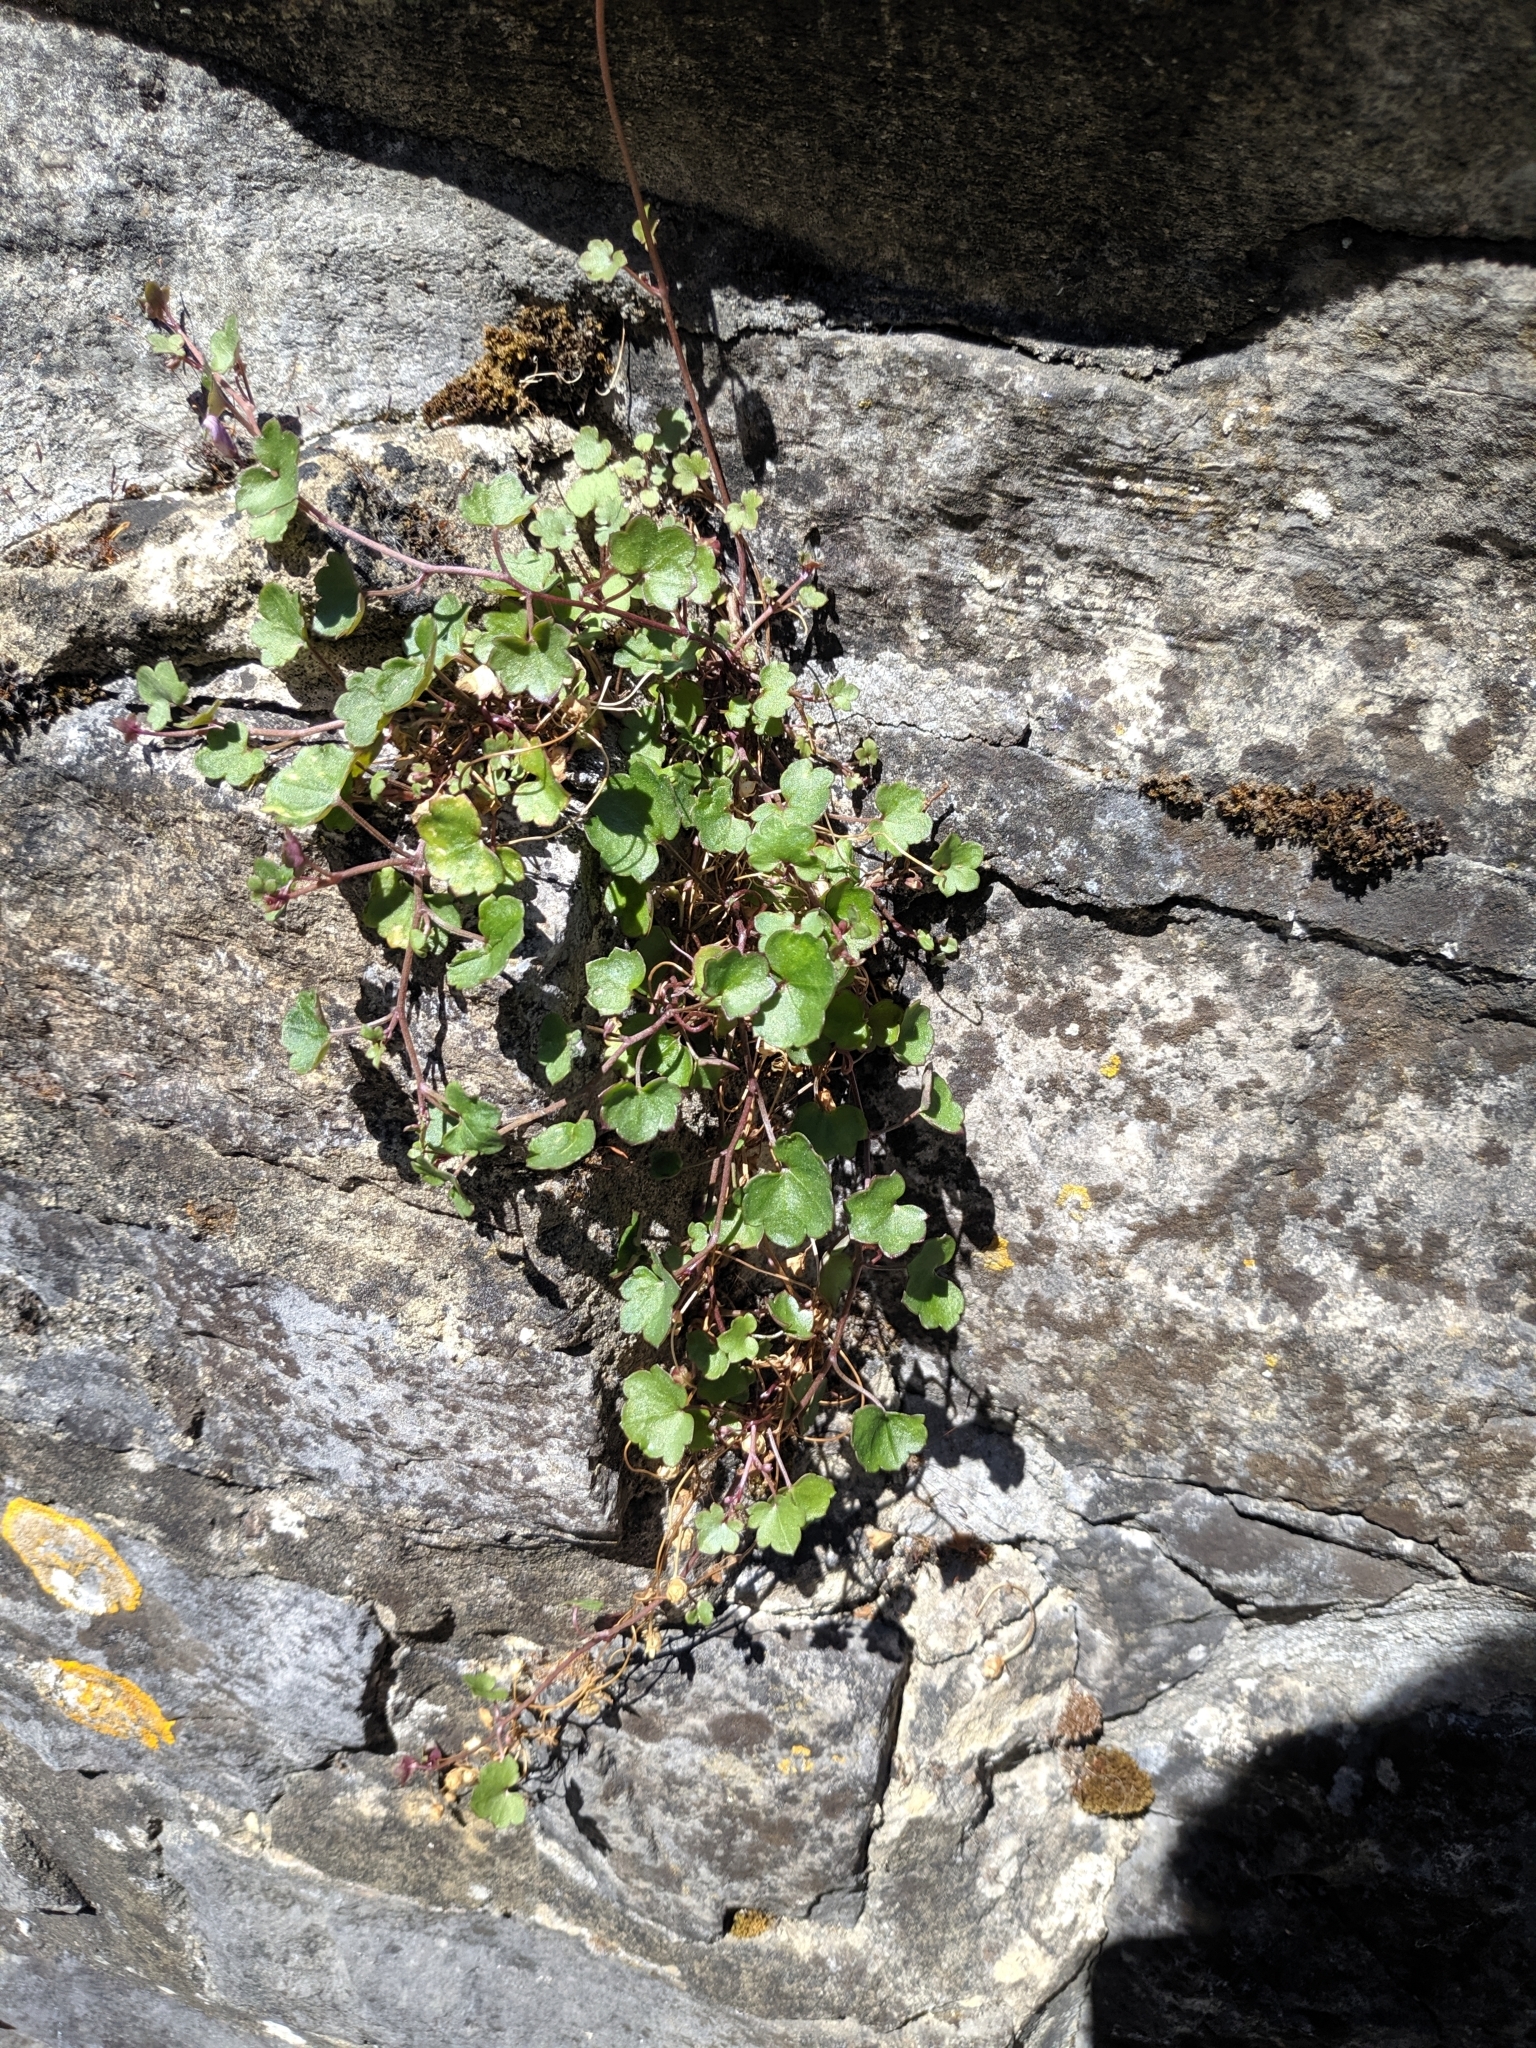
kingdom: Plantae
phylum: Tracheophyta
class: Magnoliopsida
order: Lamiales
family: Plantaginaceae
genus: Cymbalaria
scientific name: Cymbalaria muralis
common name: Ivy-leaved toadflax
